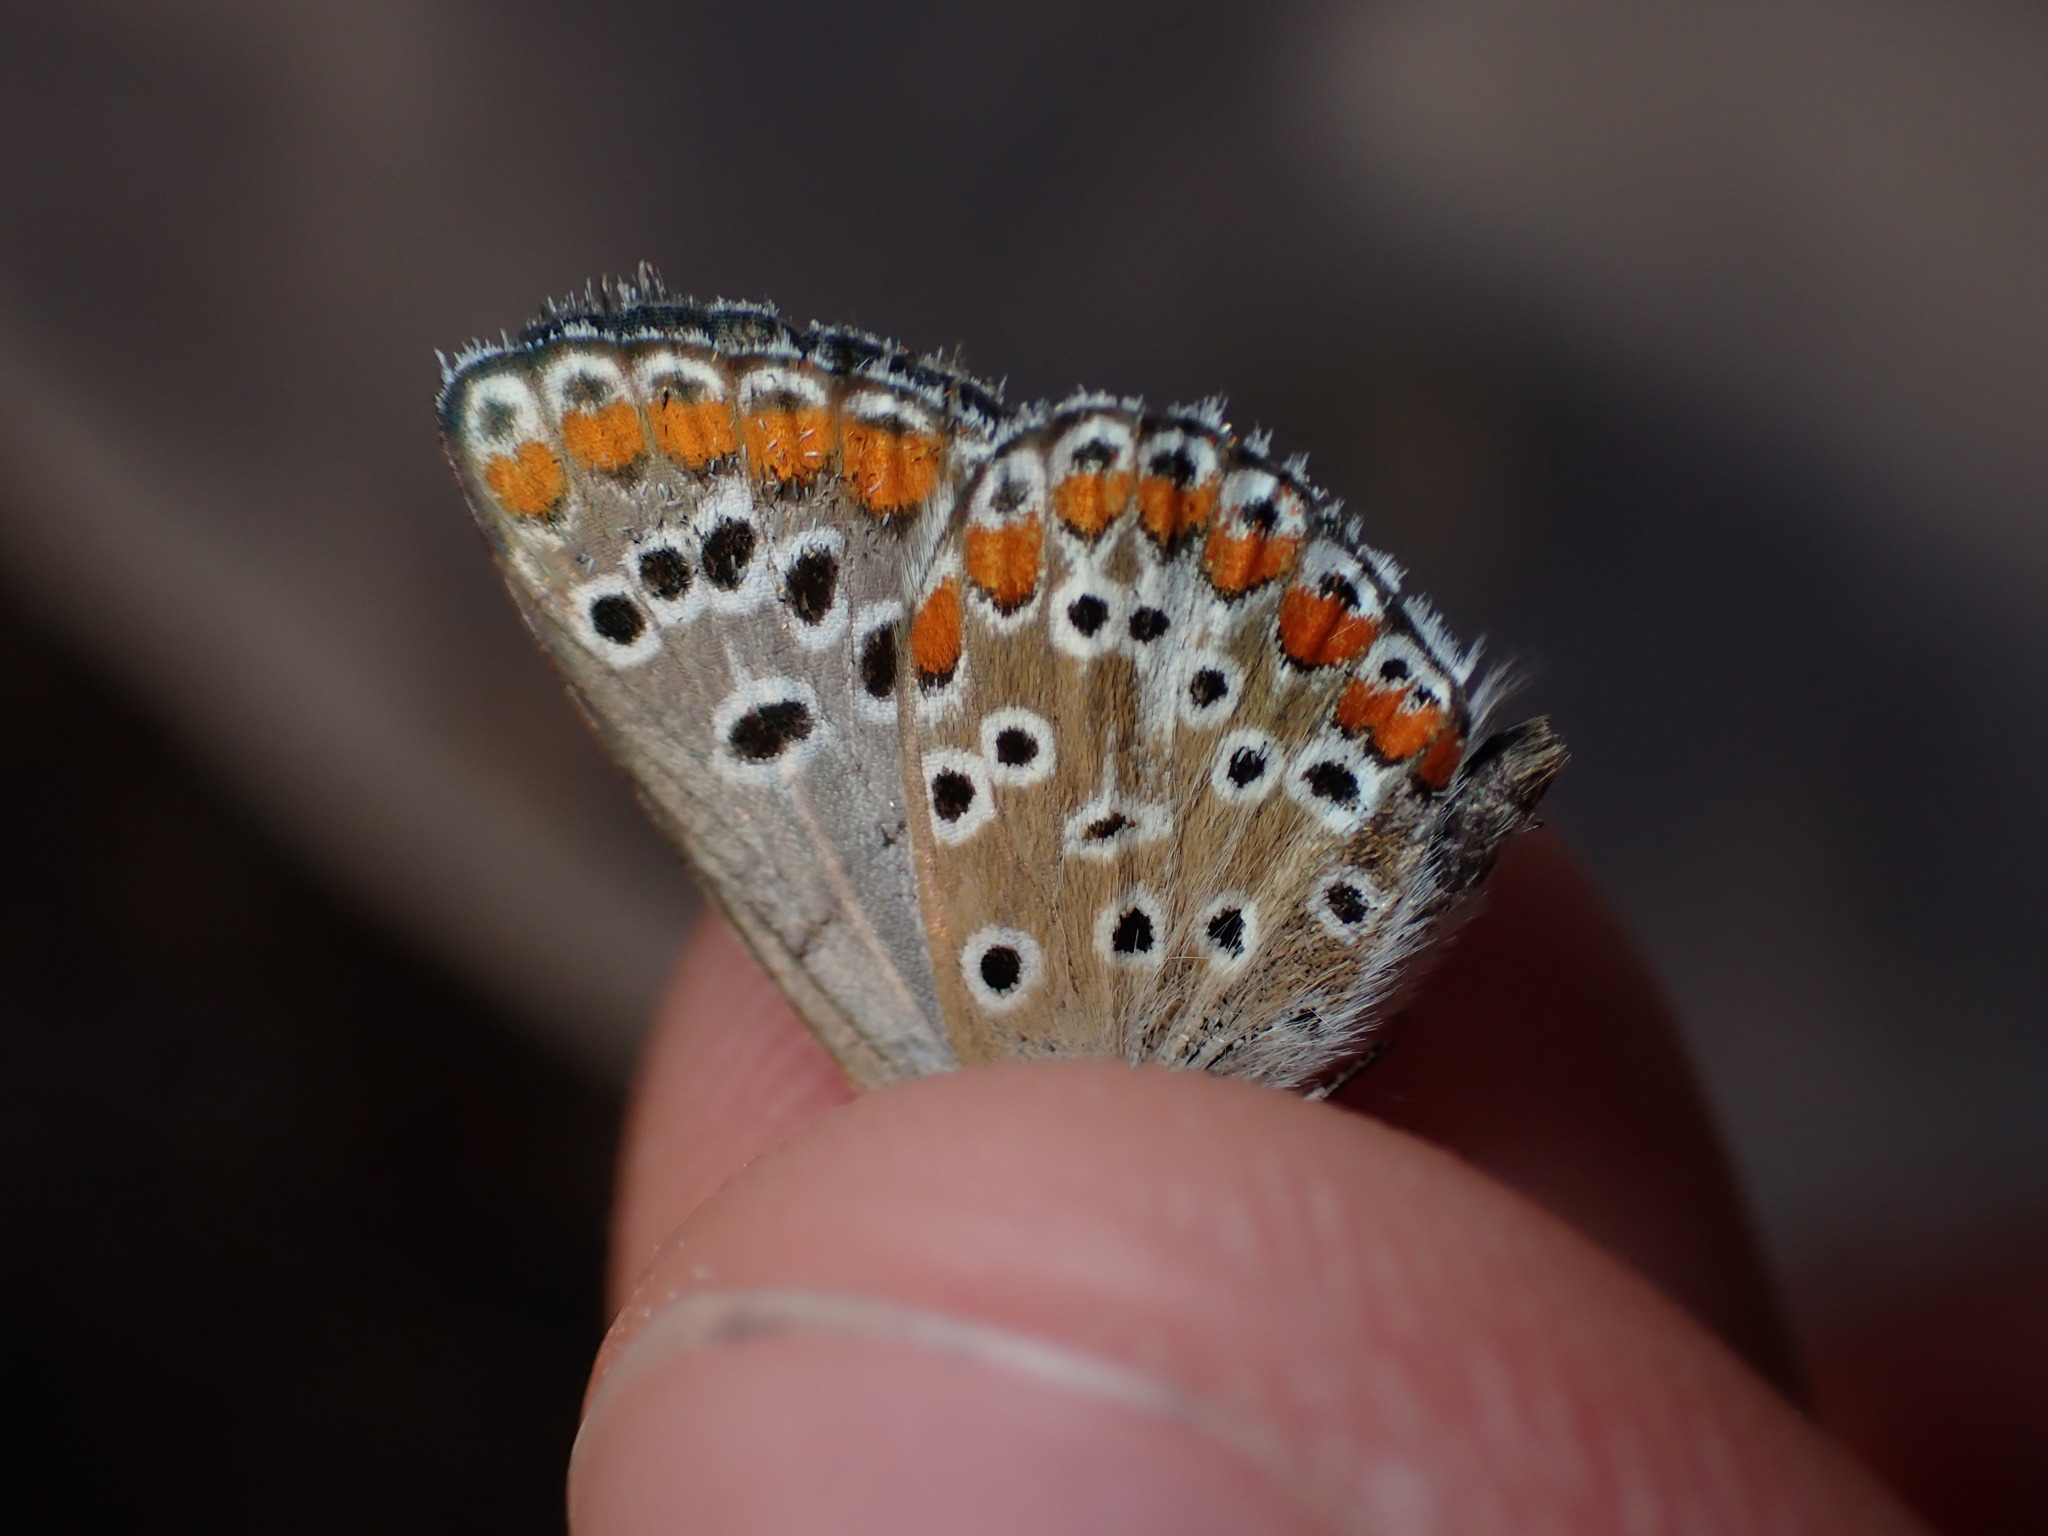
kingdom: Animalia
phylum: Arthropoda
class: Insecta
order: Lepidoptera
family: Lycaenidae
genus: Aricia
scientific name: Aricia agestis
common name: Brown argus
